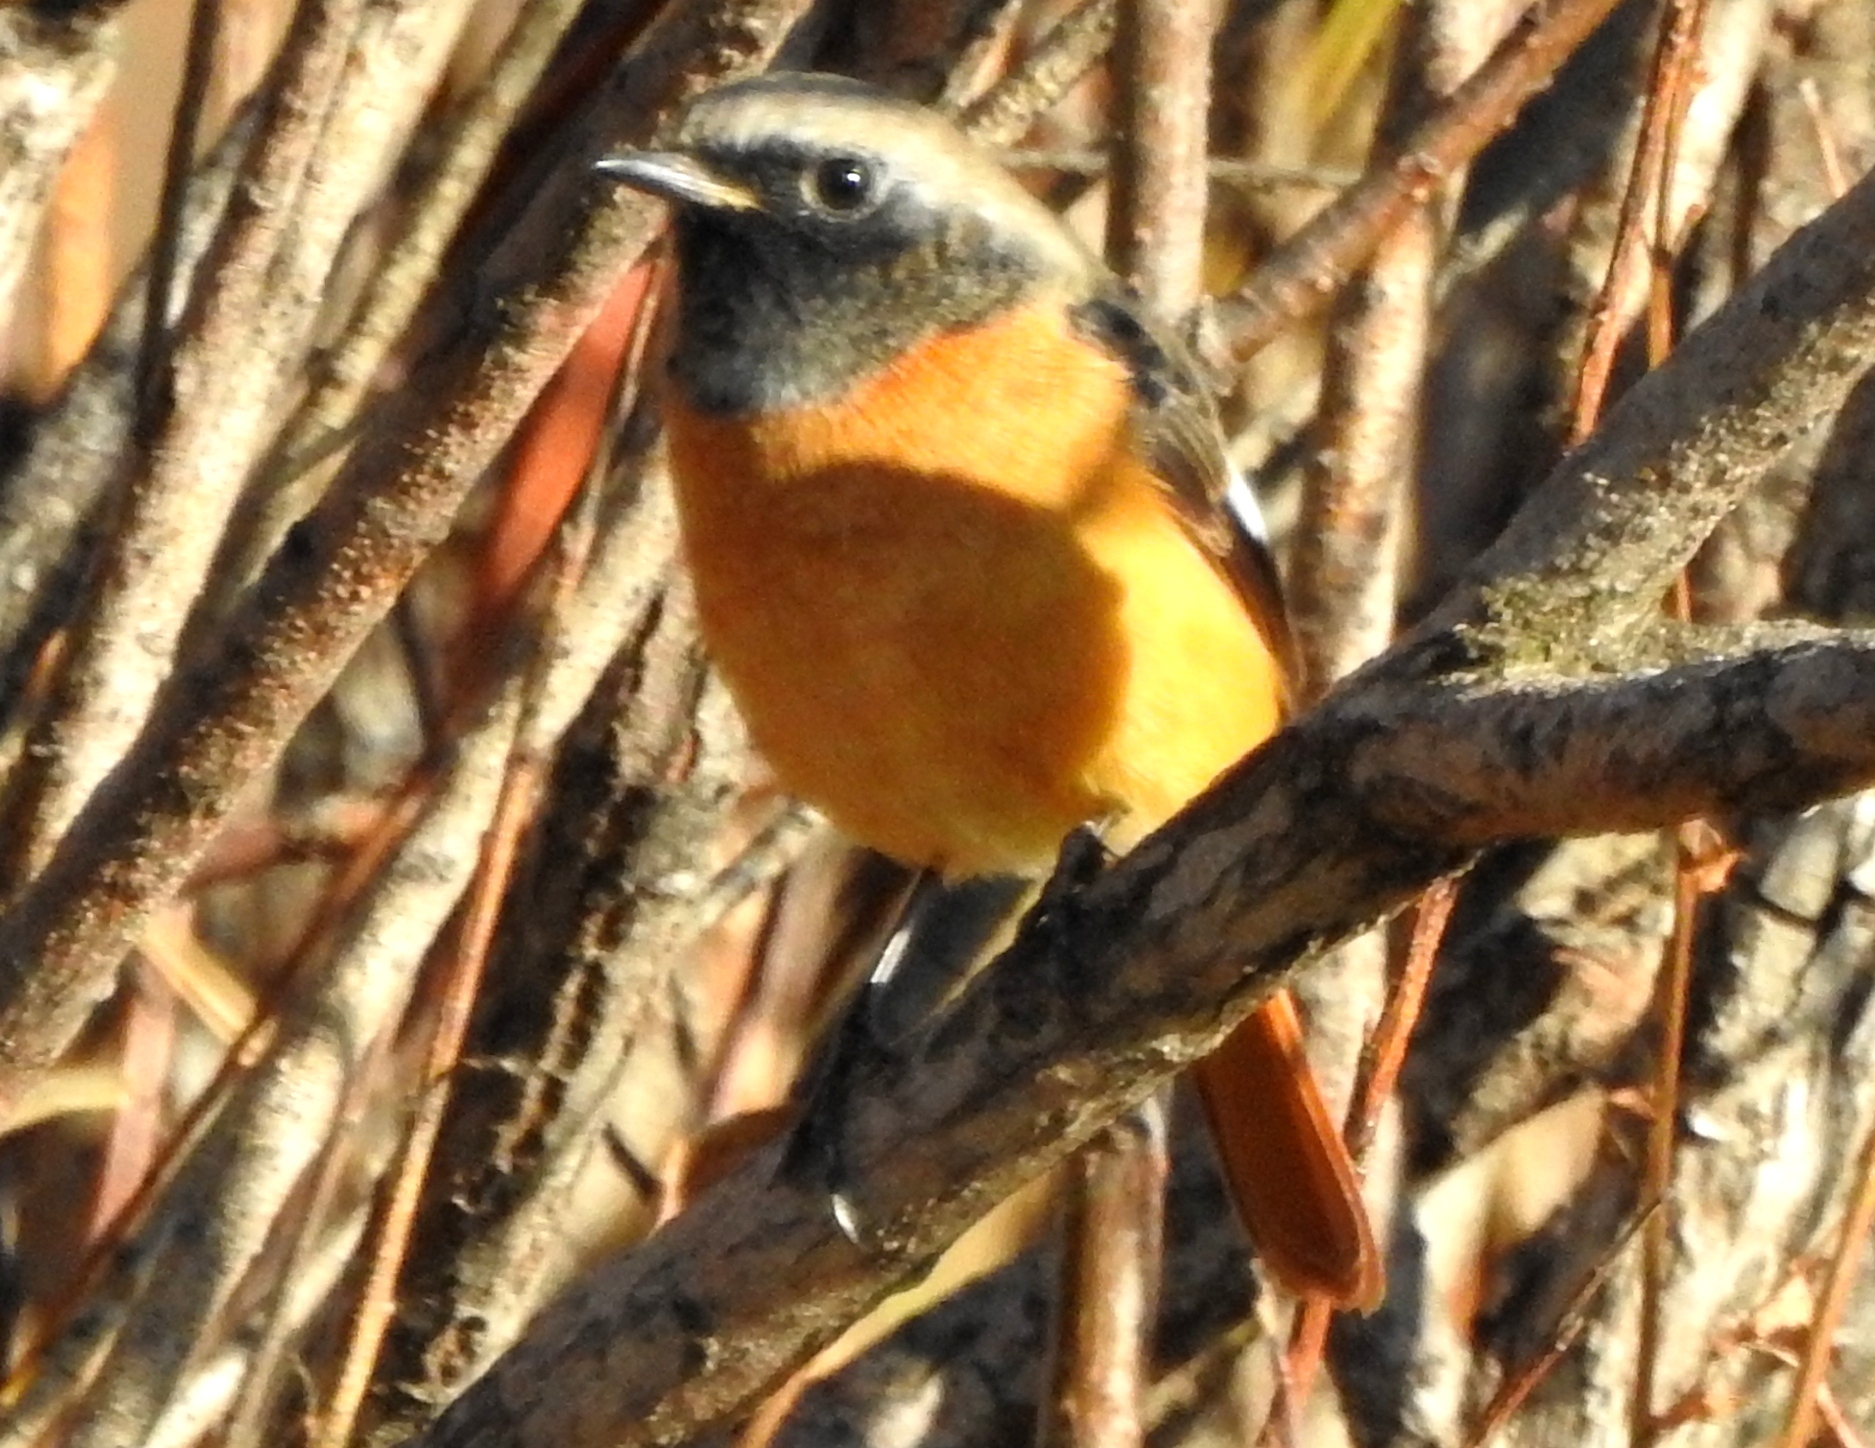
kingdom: Animalia
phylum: Chordata
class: Aves
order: Passeriformes
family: Muscicapidae
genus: Phoenicurus
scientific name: Phoenicurus auroreus
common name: Daurian redstart
